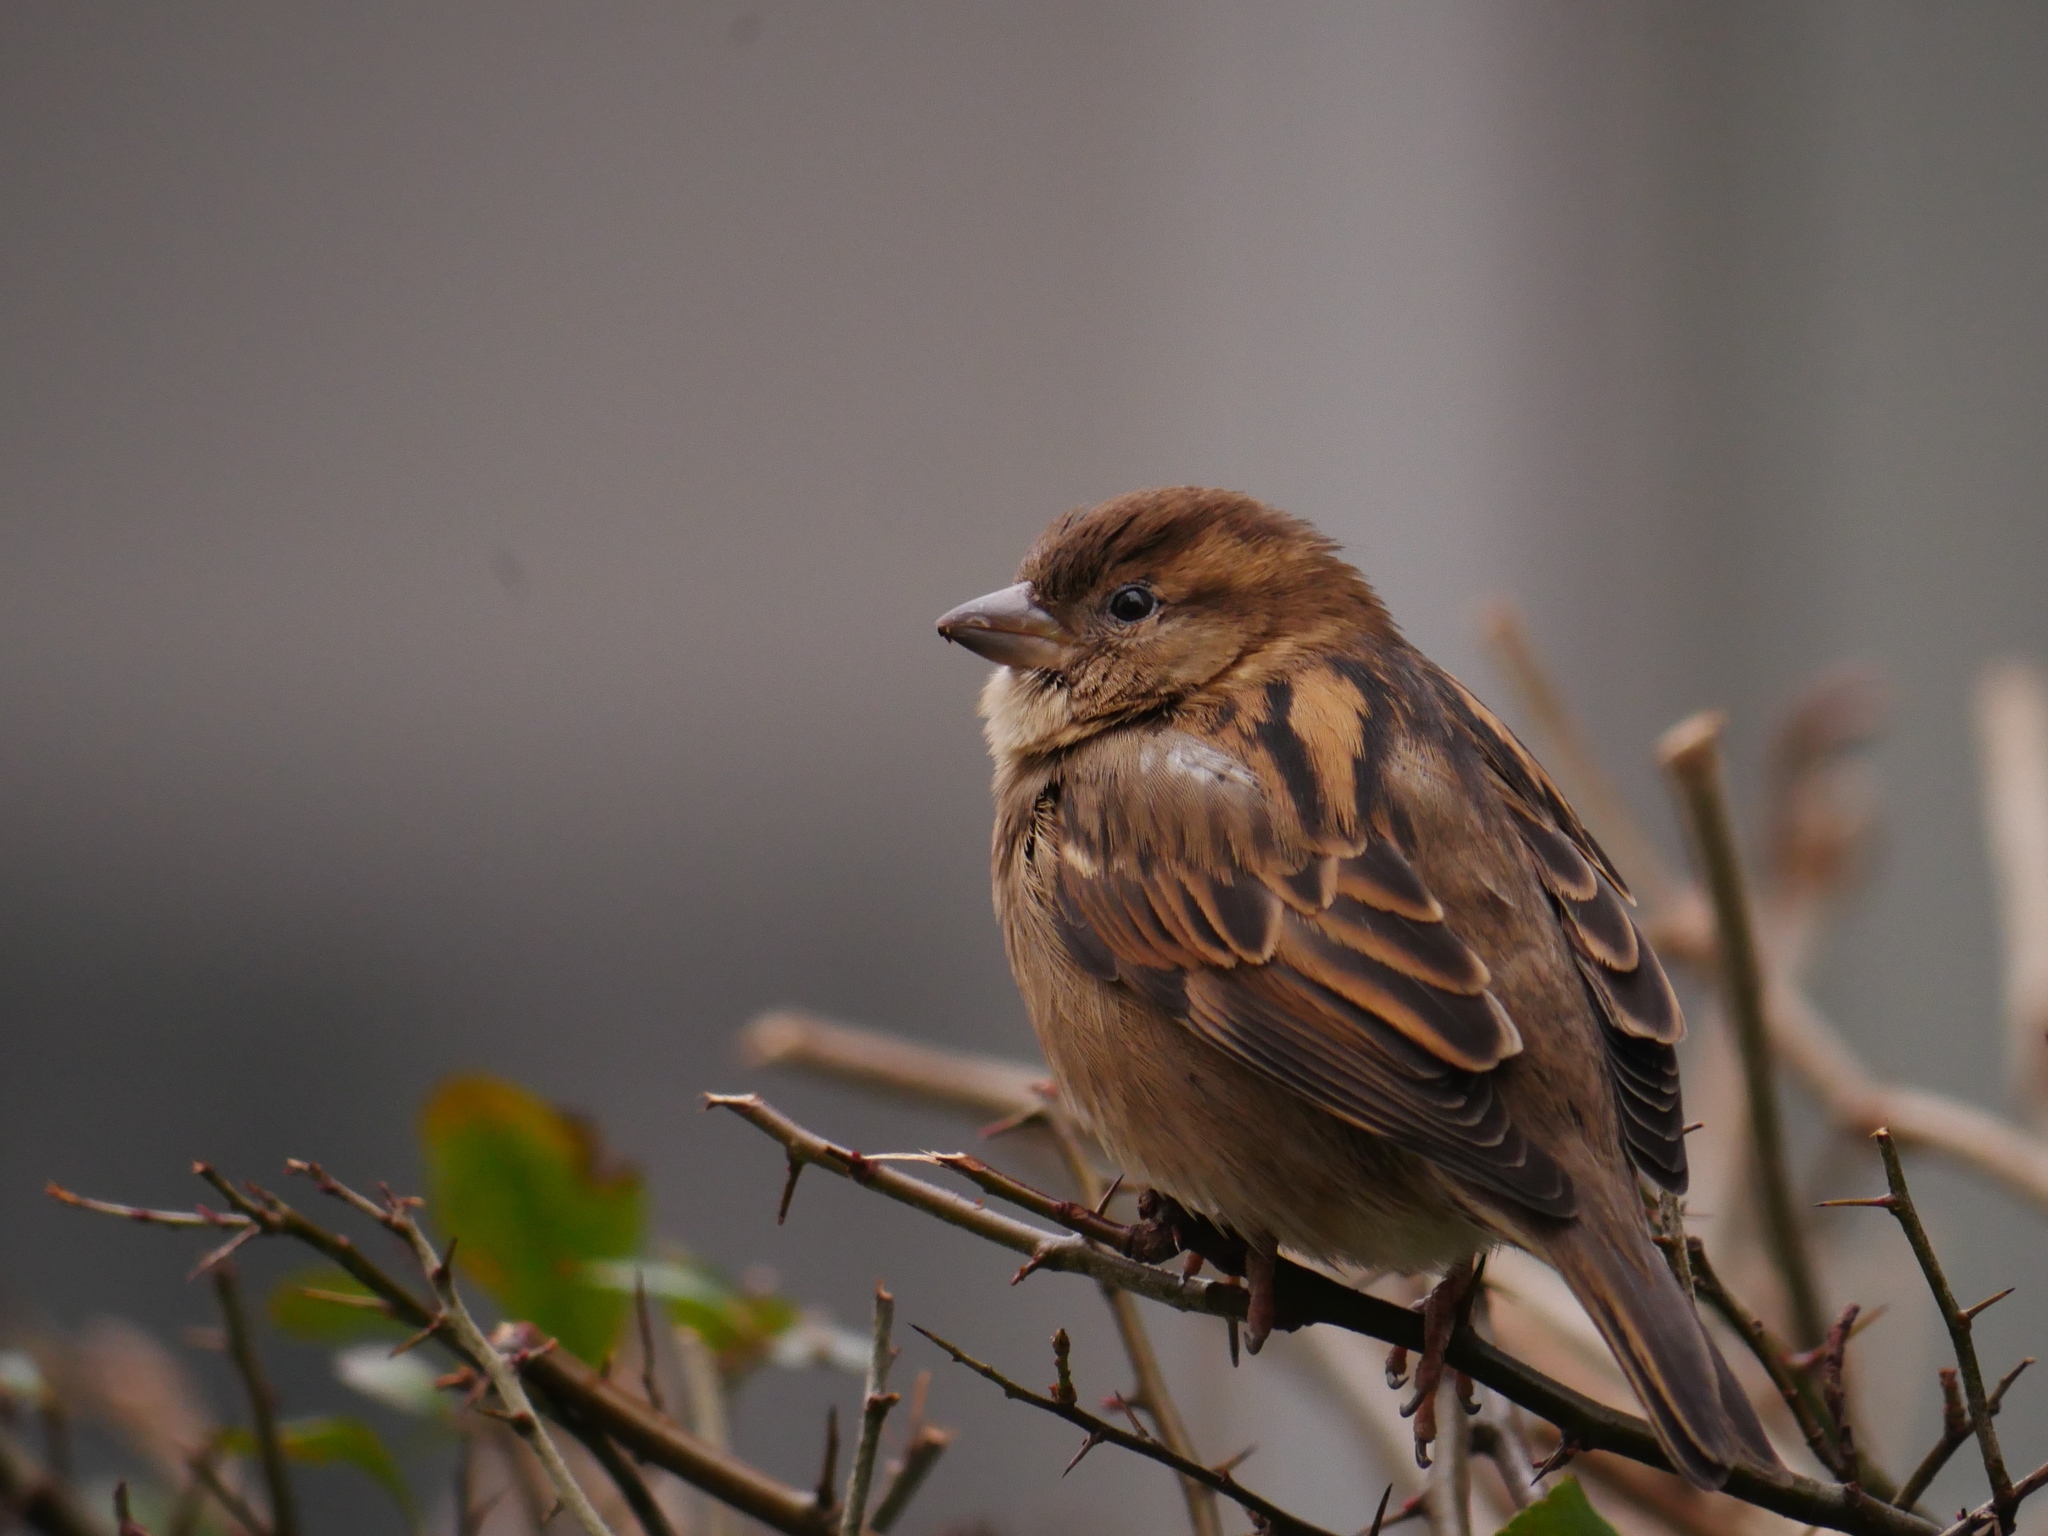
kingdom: Animalia
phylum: Chordata
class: Aves
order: Passeriformes
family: Passeridae
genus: Passer
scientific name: Passer domesticus
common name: House sparrow
